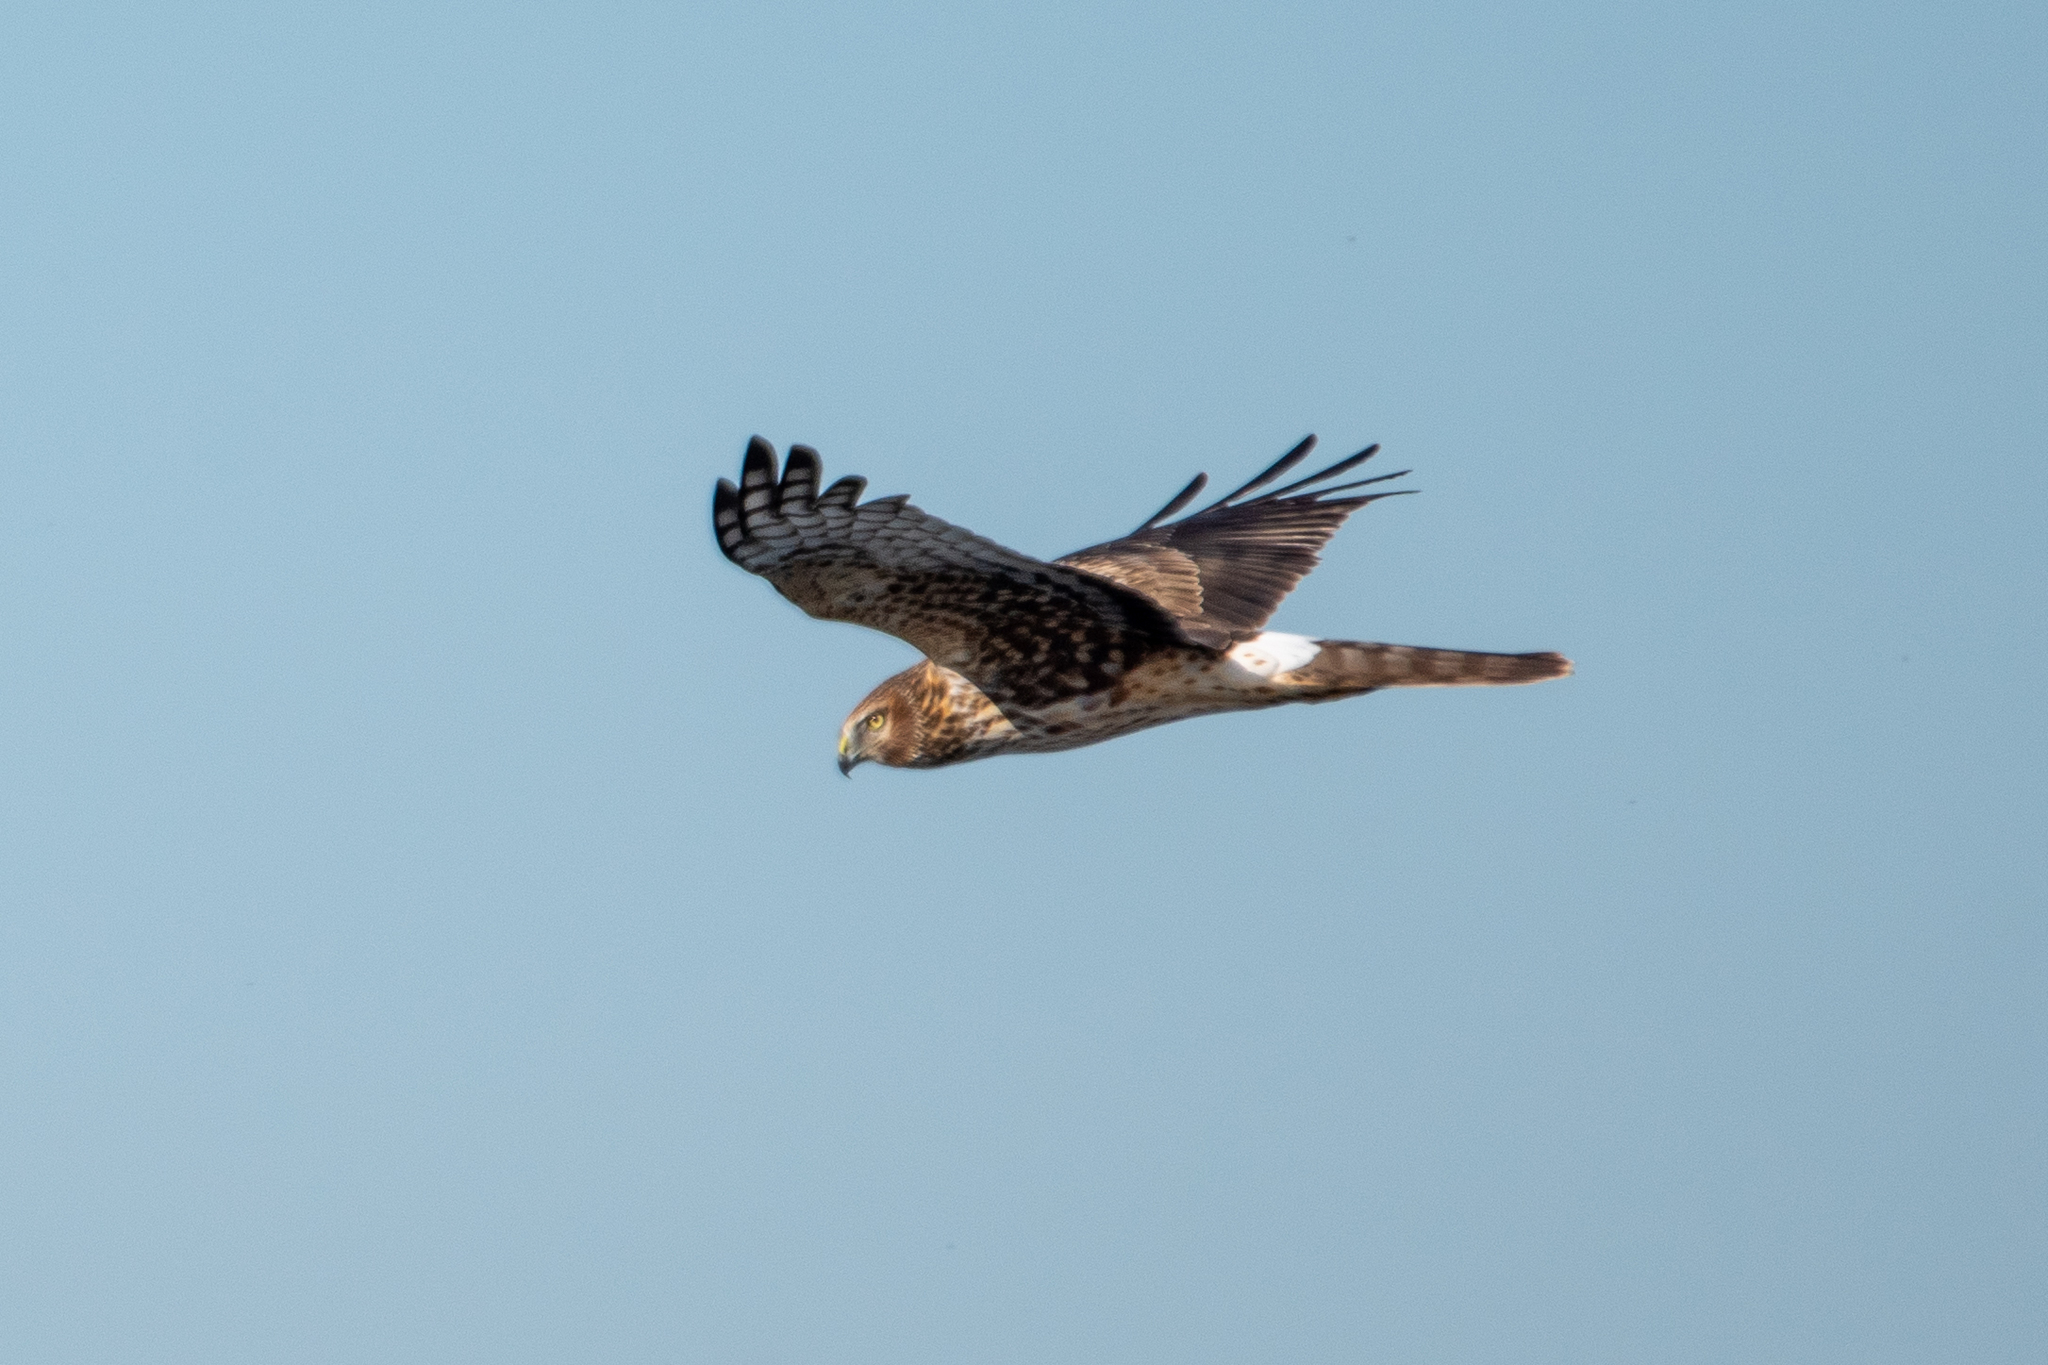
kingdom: Animalia
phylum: Chordata
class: Aves
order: Accipitriformes
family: Accipitridae
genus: Circus
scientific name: Circus cyaneus
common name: Hen harrier
